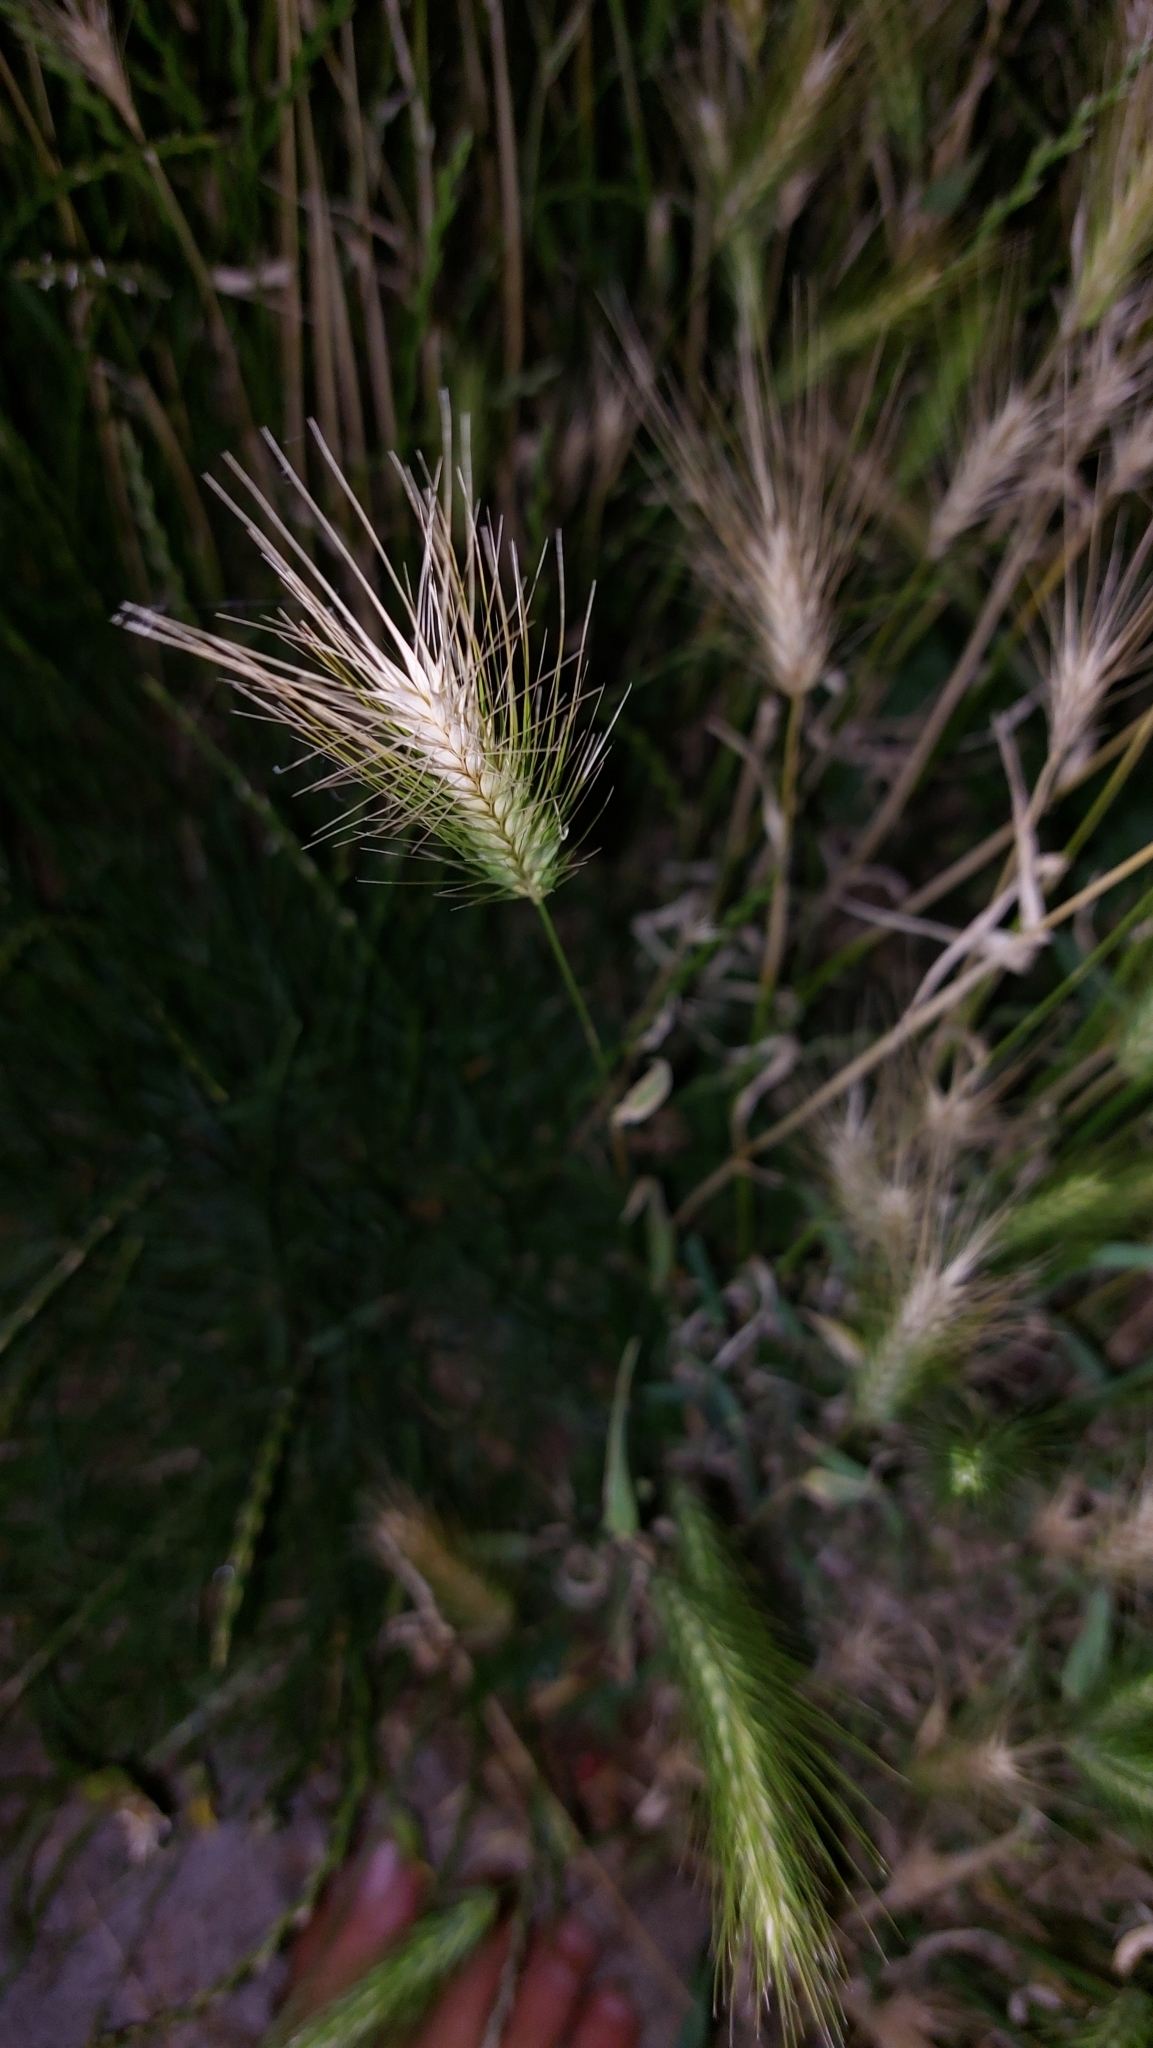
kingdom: Plantae
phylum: Tracheophyta
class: Liliopsida
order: Poales
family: Poaceae
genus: Hordeum
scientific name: Hordeum murinum
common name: Wall barley
